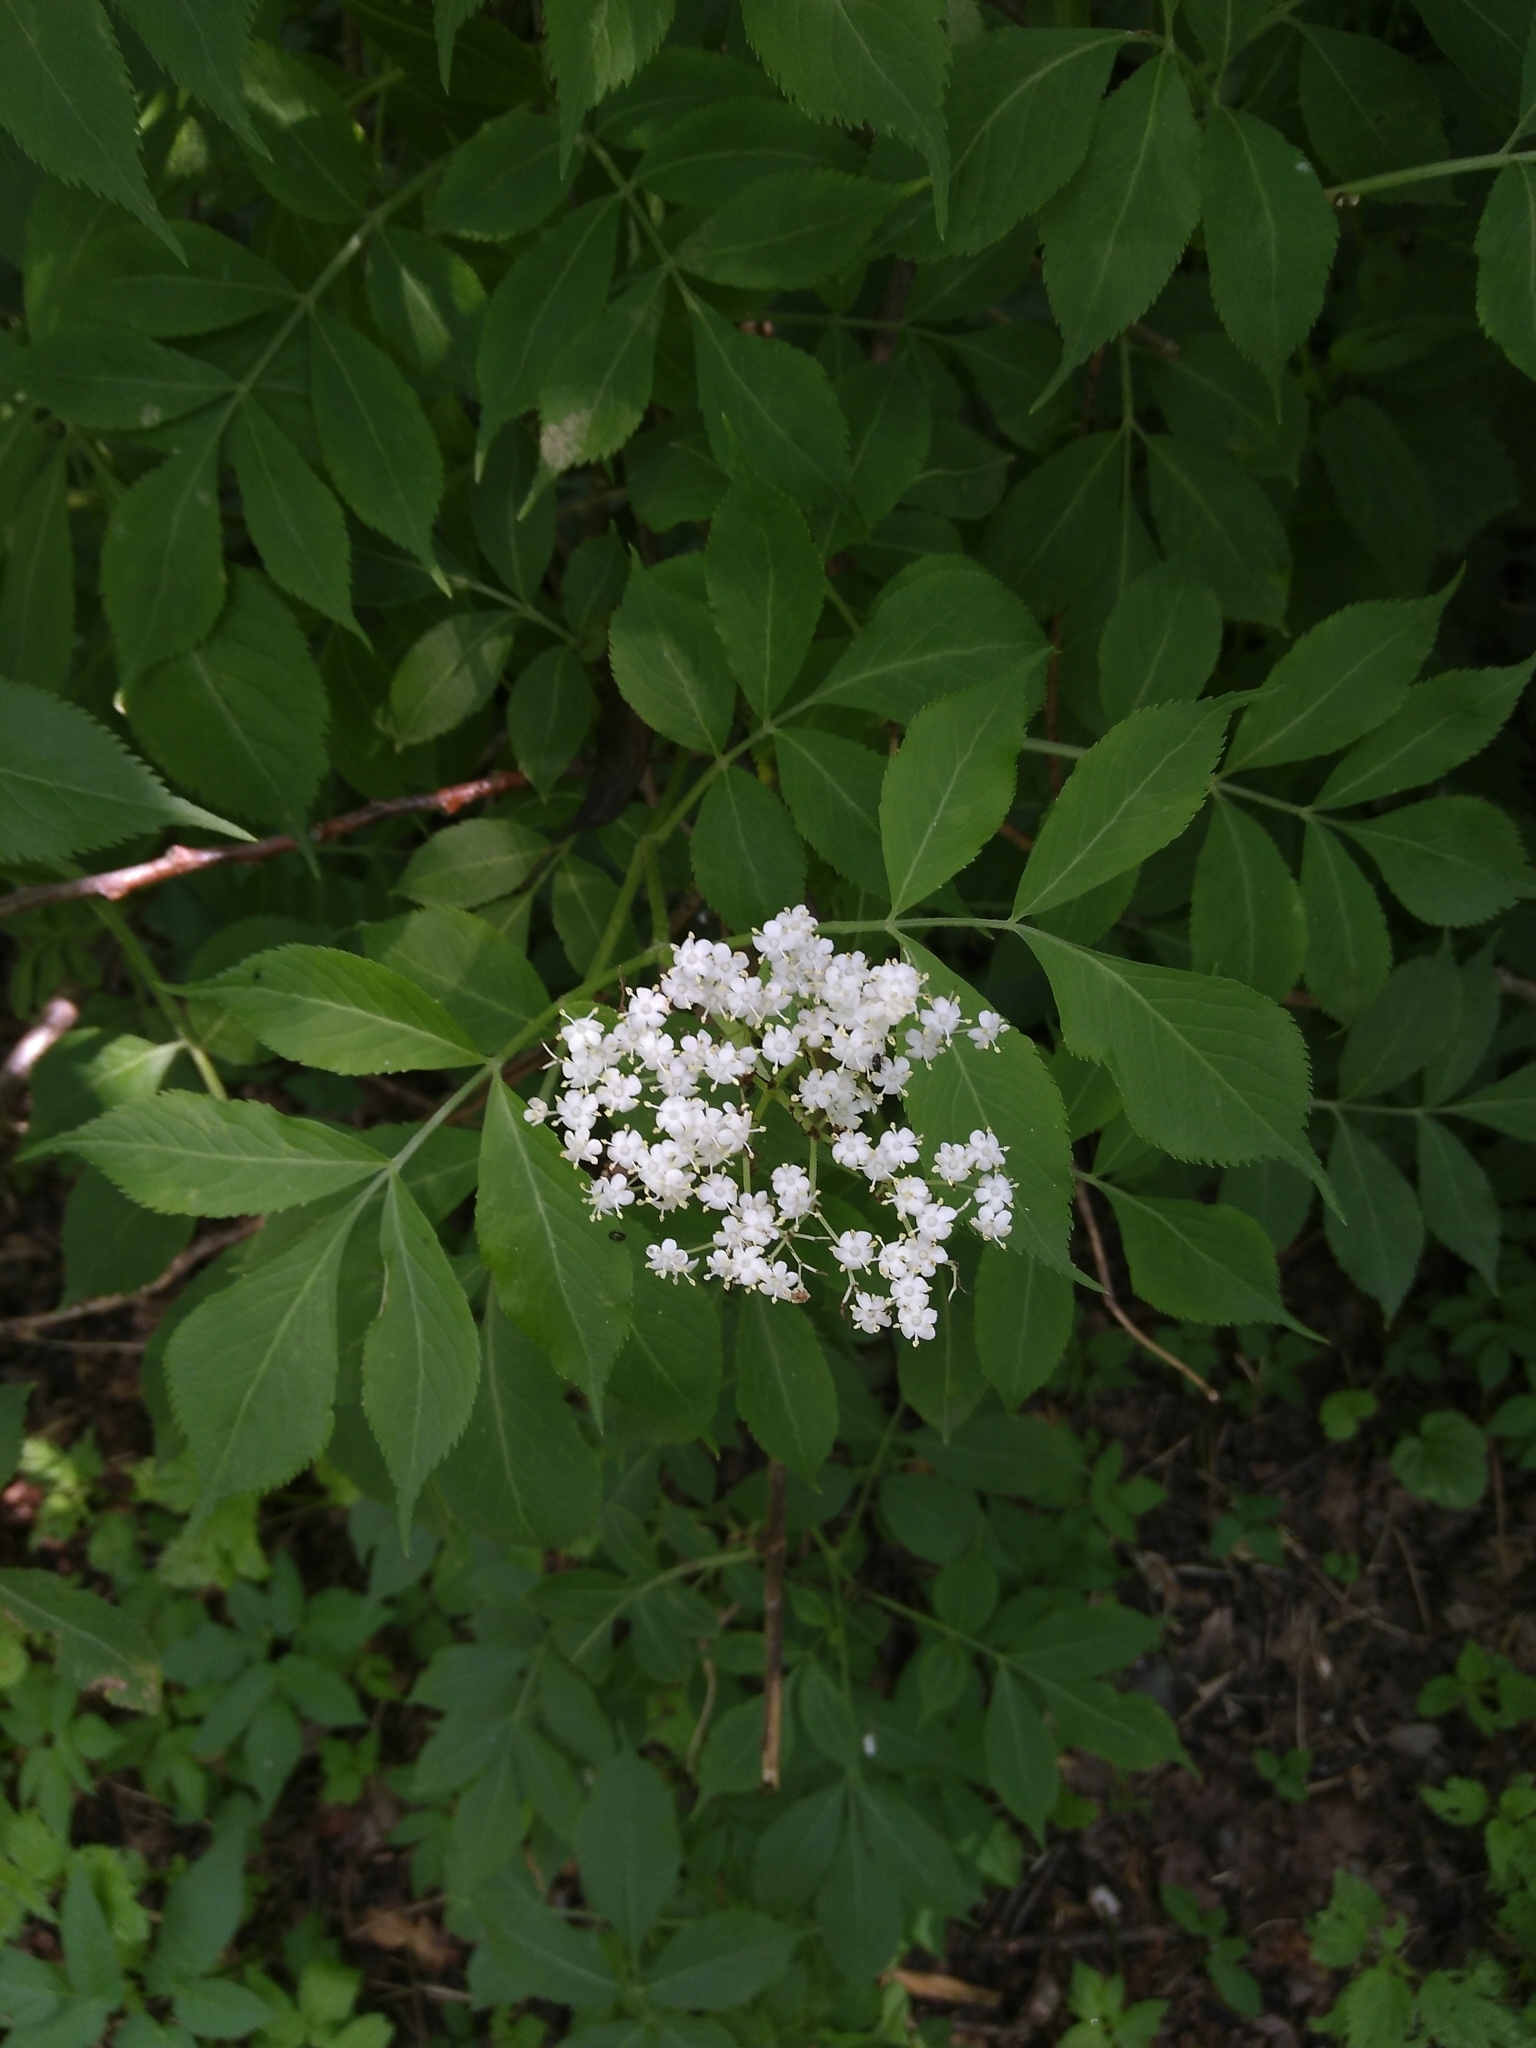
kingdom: Plantae
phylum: Tracheophyta
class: Magnoliopsida
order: Dipsacales
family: Viburnaceae
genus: Sambucus
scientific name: Sambucus nigra
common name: Elder
